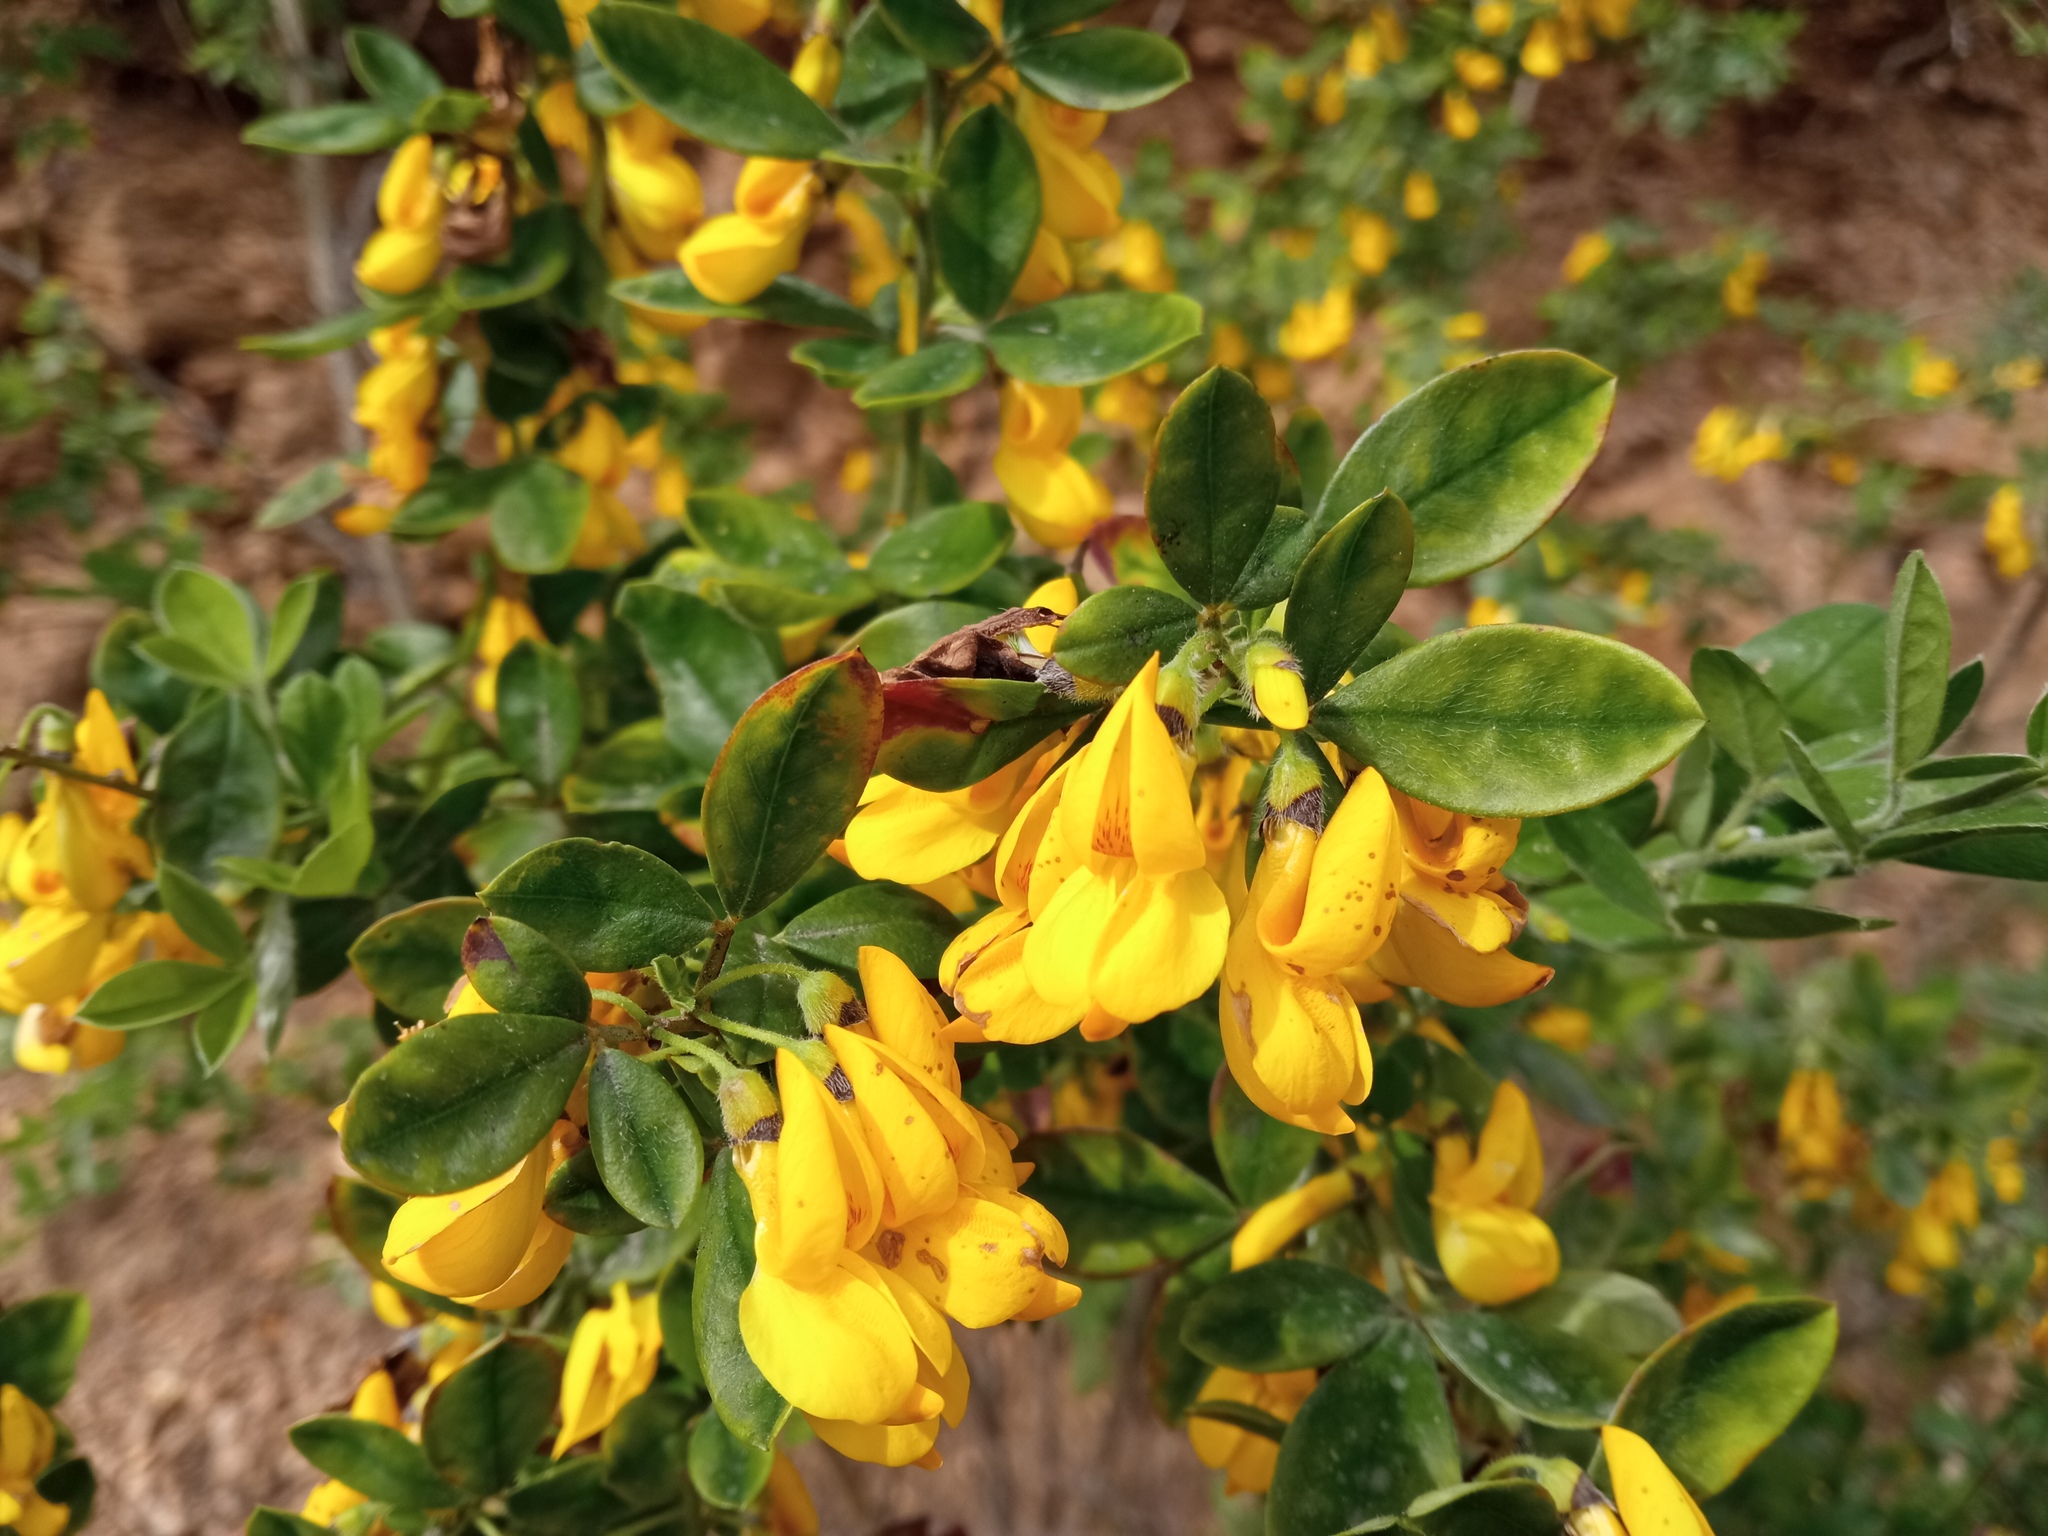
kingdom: Plantae
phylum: Tracheophyta
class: Magnoliopsida
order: Fabales
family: Fabaceae
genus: Cytisus
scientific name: Cytisus villosus
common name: Hairybroom
